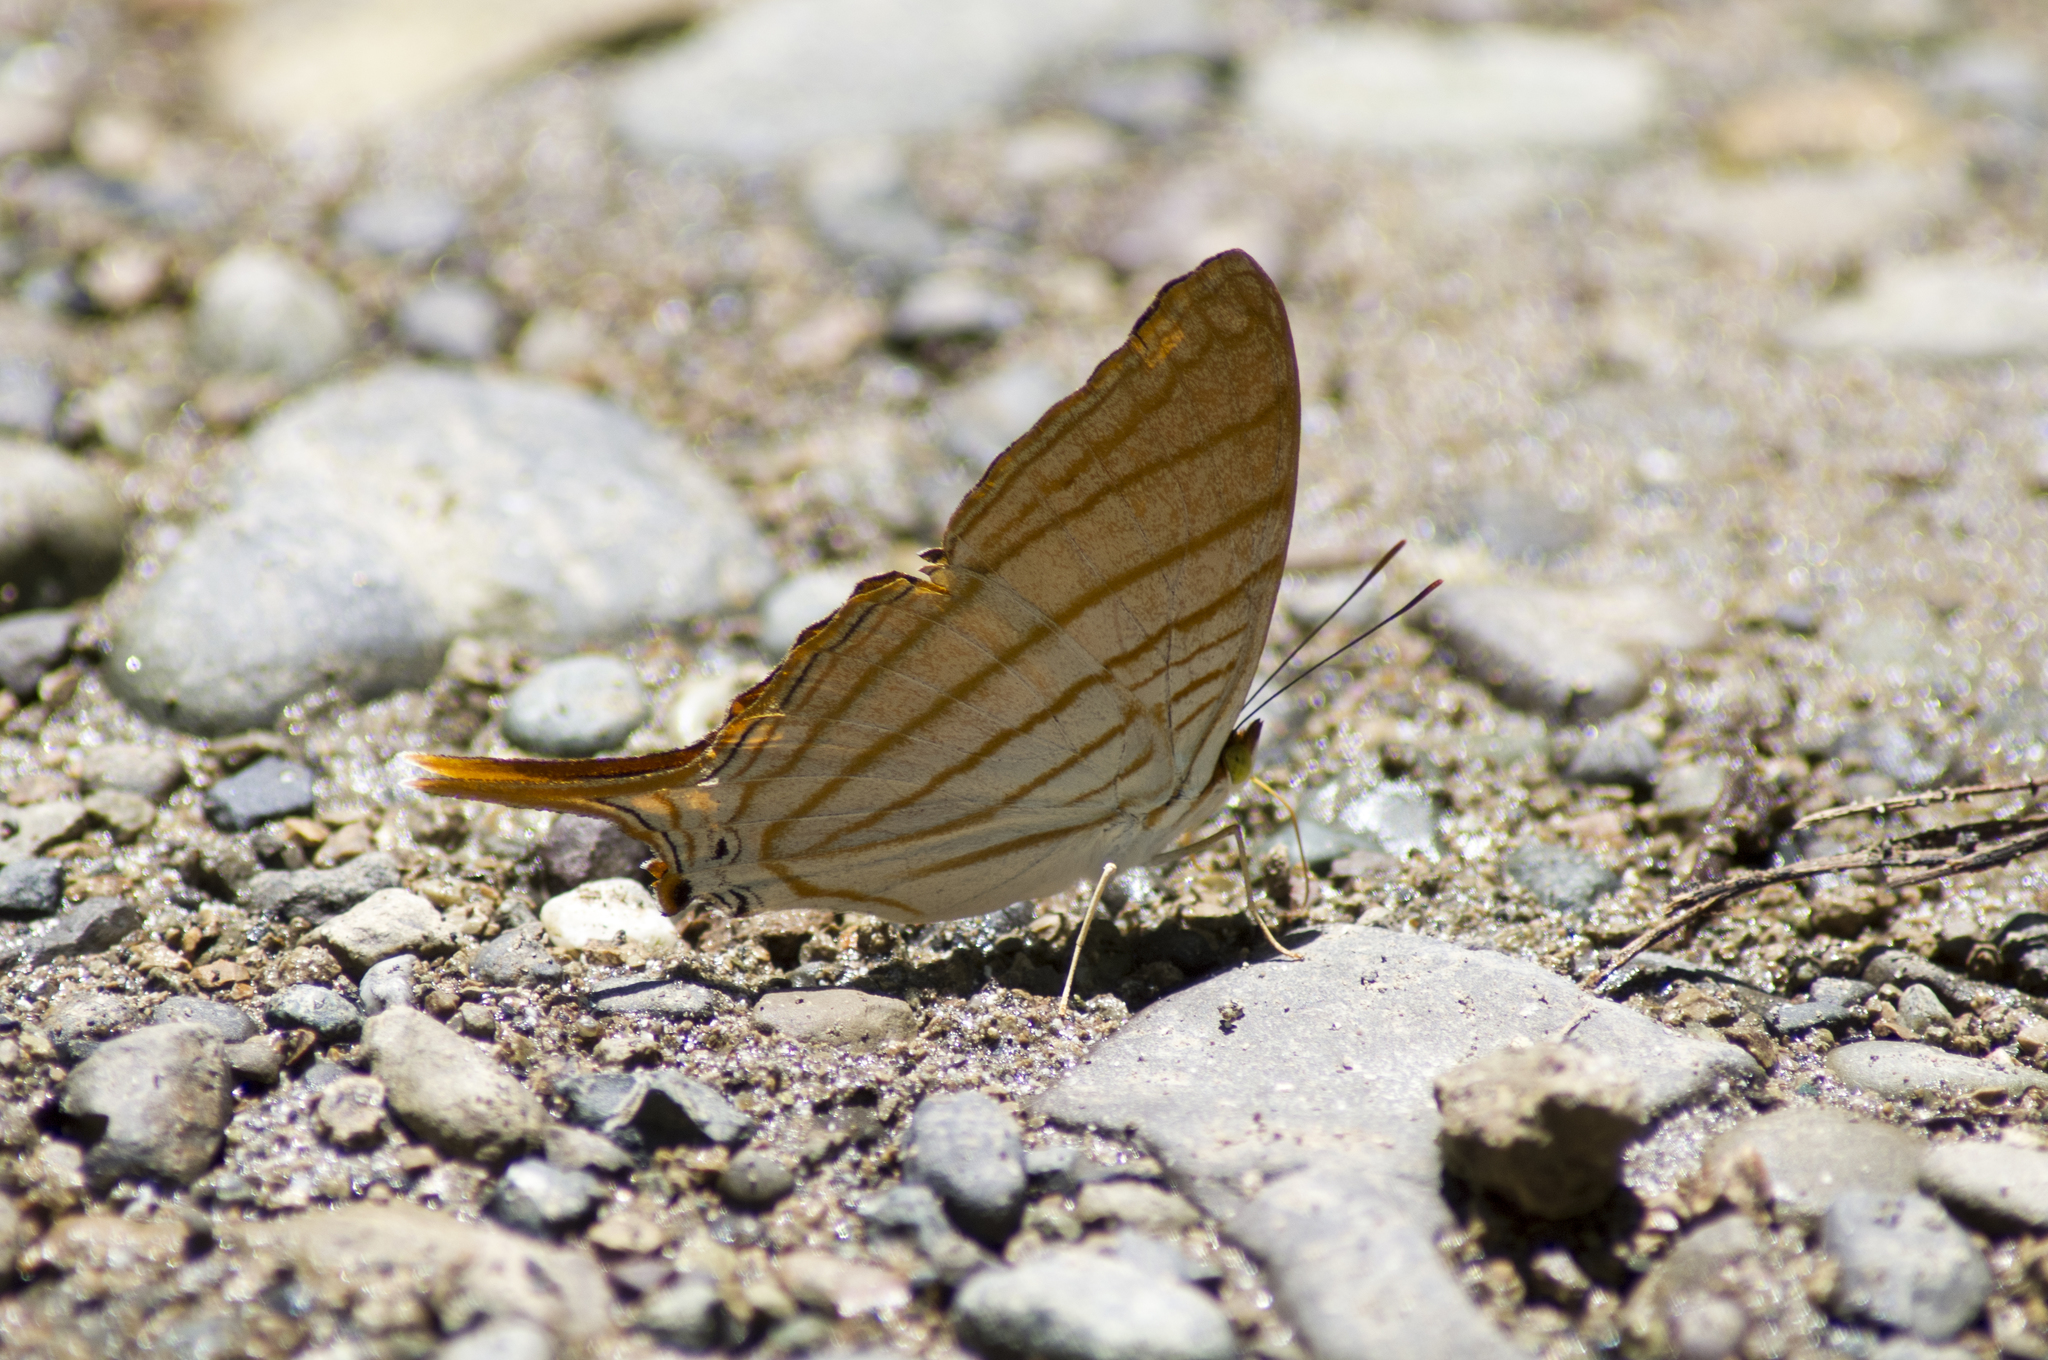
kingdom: Animalia
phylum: Arthropoda
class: Insecta
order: Lepidoptera
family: Nymphalidae
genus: Marpesia
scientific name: Marpesia berania
